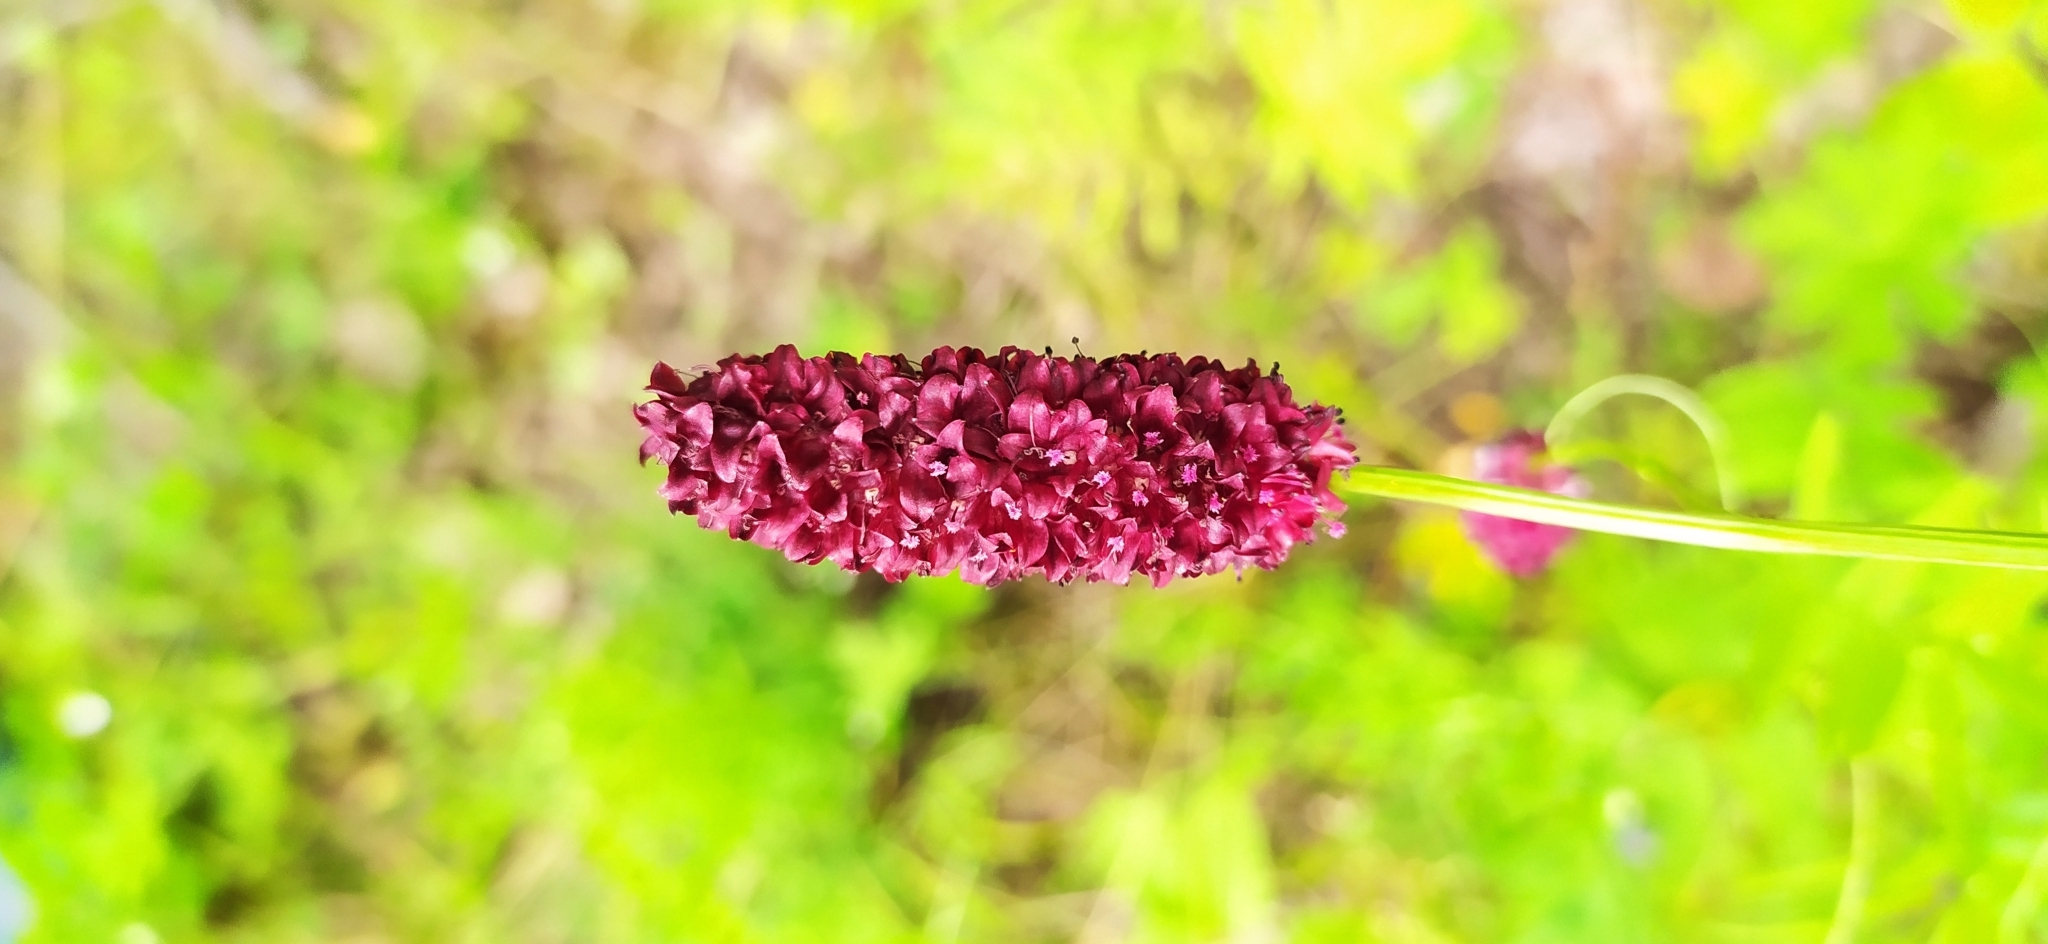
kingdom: Plantae
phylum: Tracheophyta
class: Magnoliopsida
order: Rosales
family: Rosaceae
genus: Sanguisorba
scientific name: Sanguisorba officinalis
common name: Great burnet
